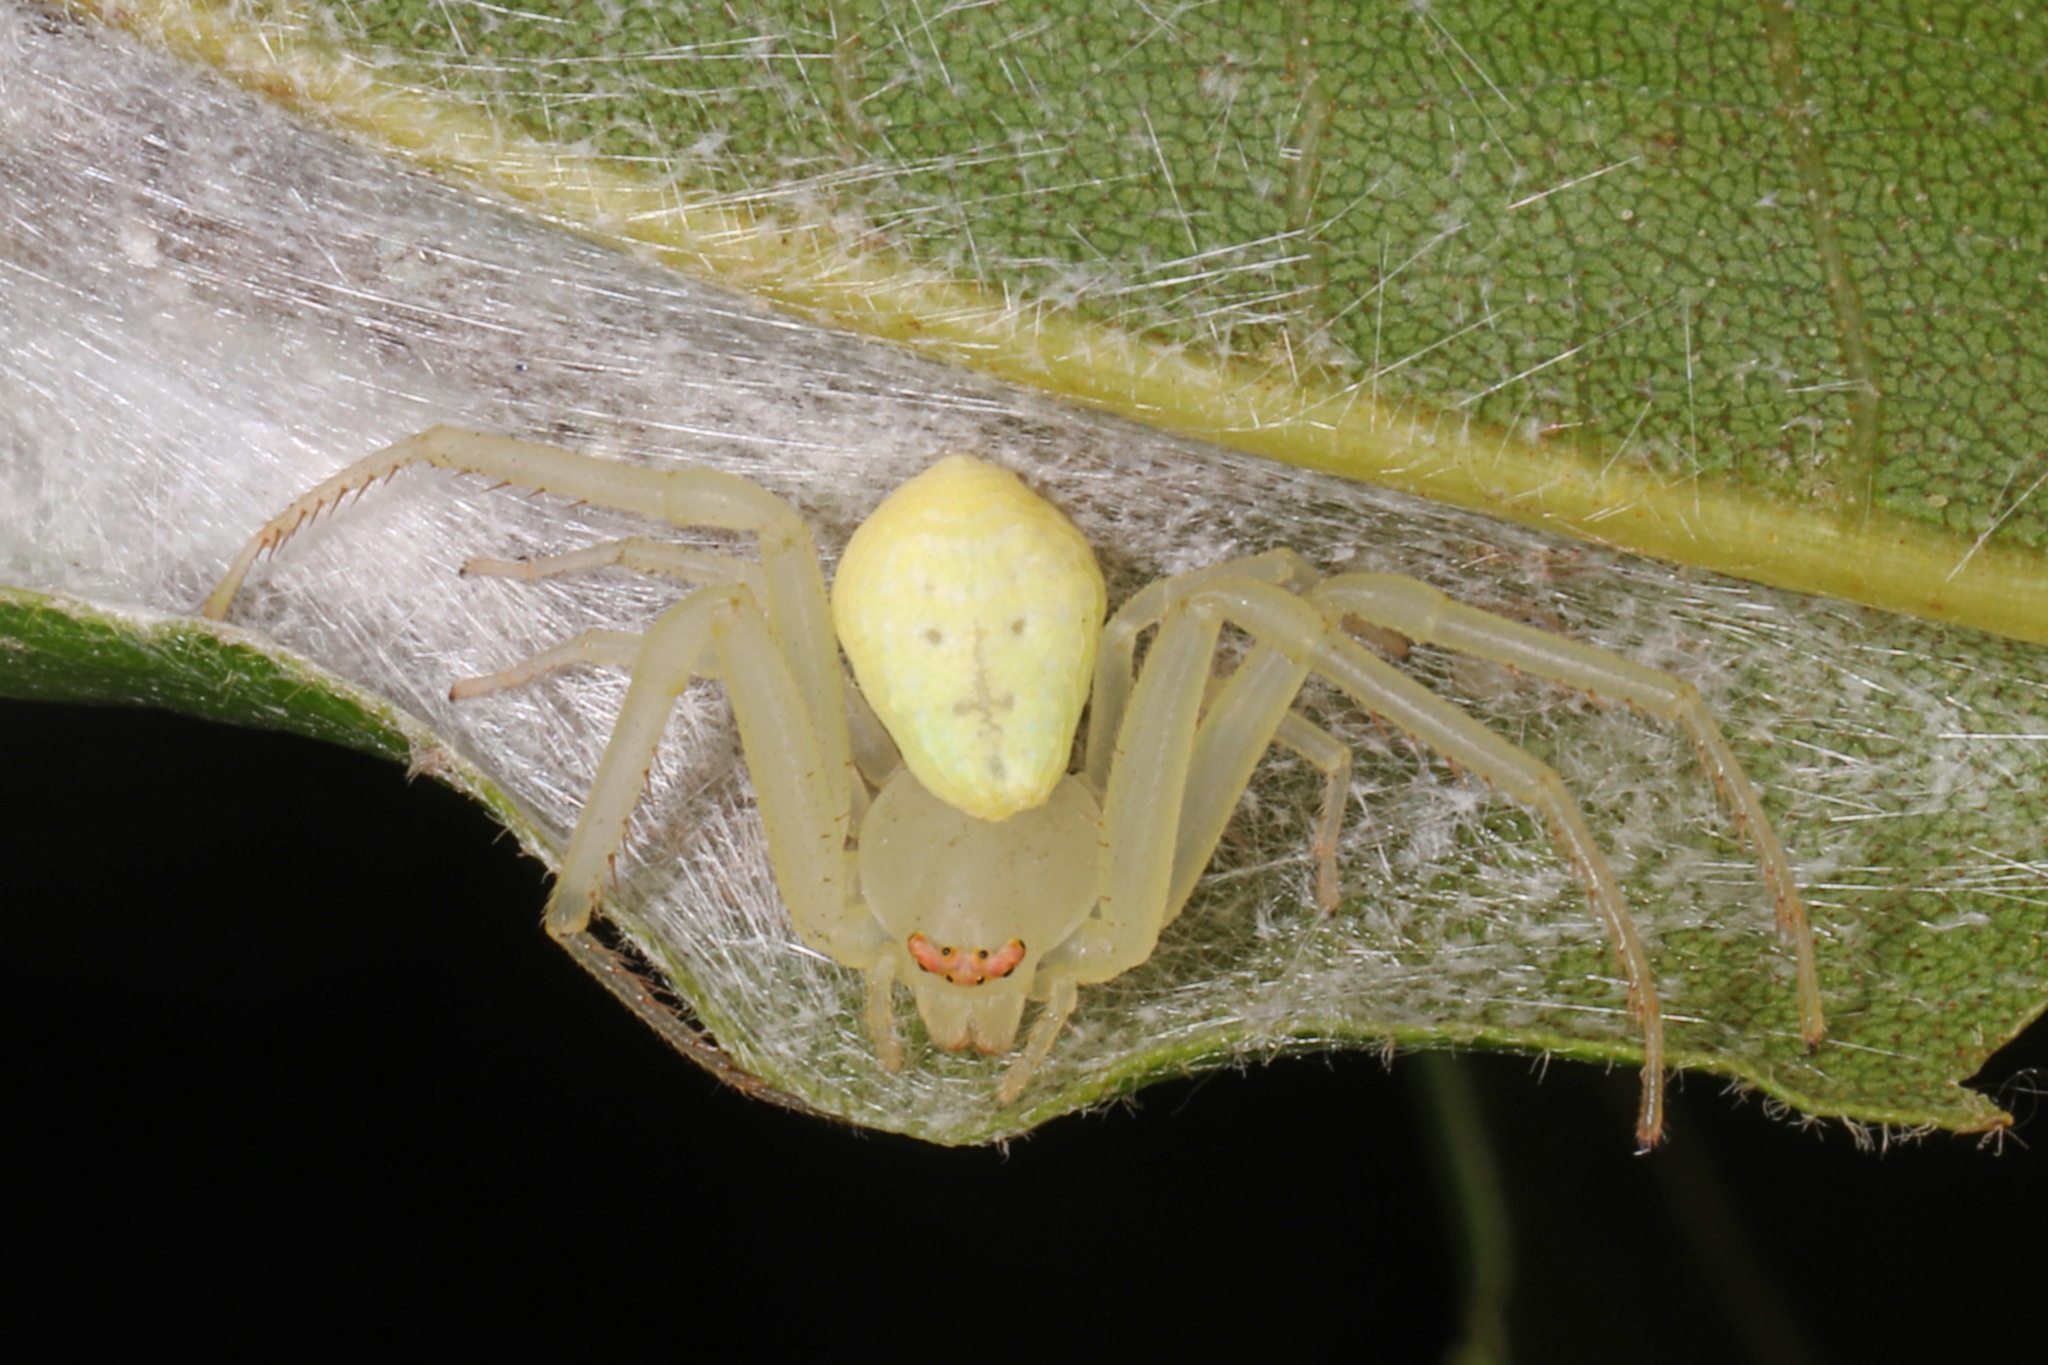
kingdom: Animalia
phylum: Arthropoda
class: Arachnida
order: Araneae
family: Thomisidae
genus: Misumessus
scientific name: Misumessus oblongus
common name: American green crab spider
